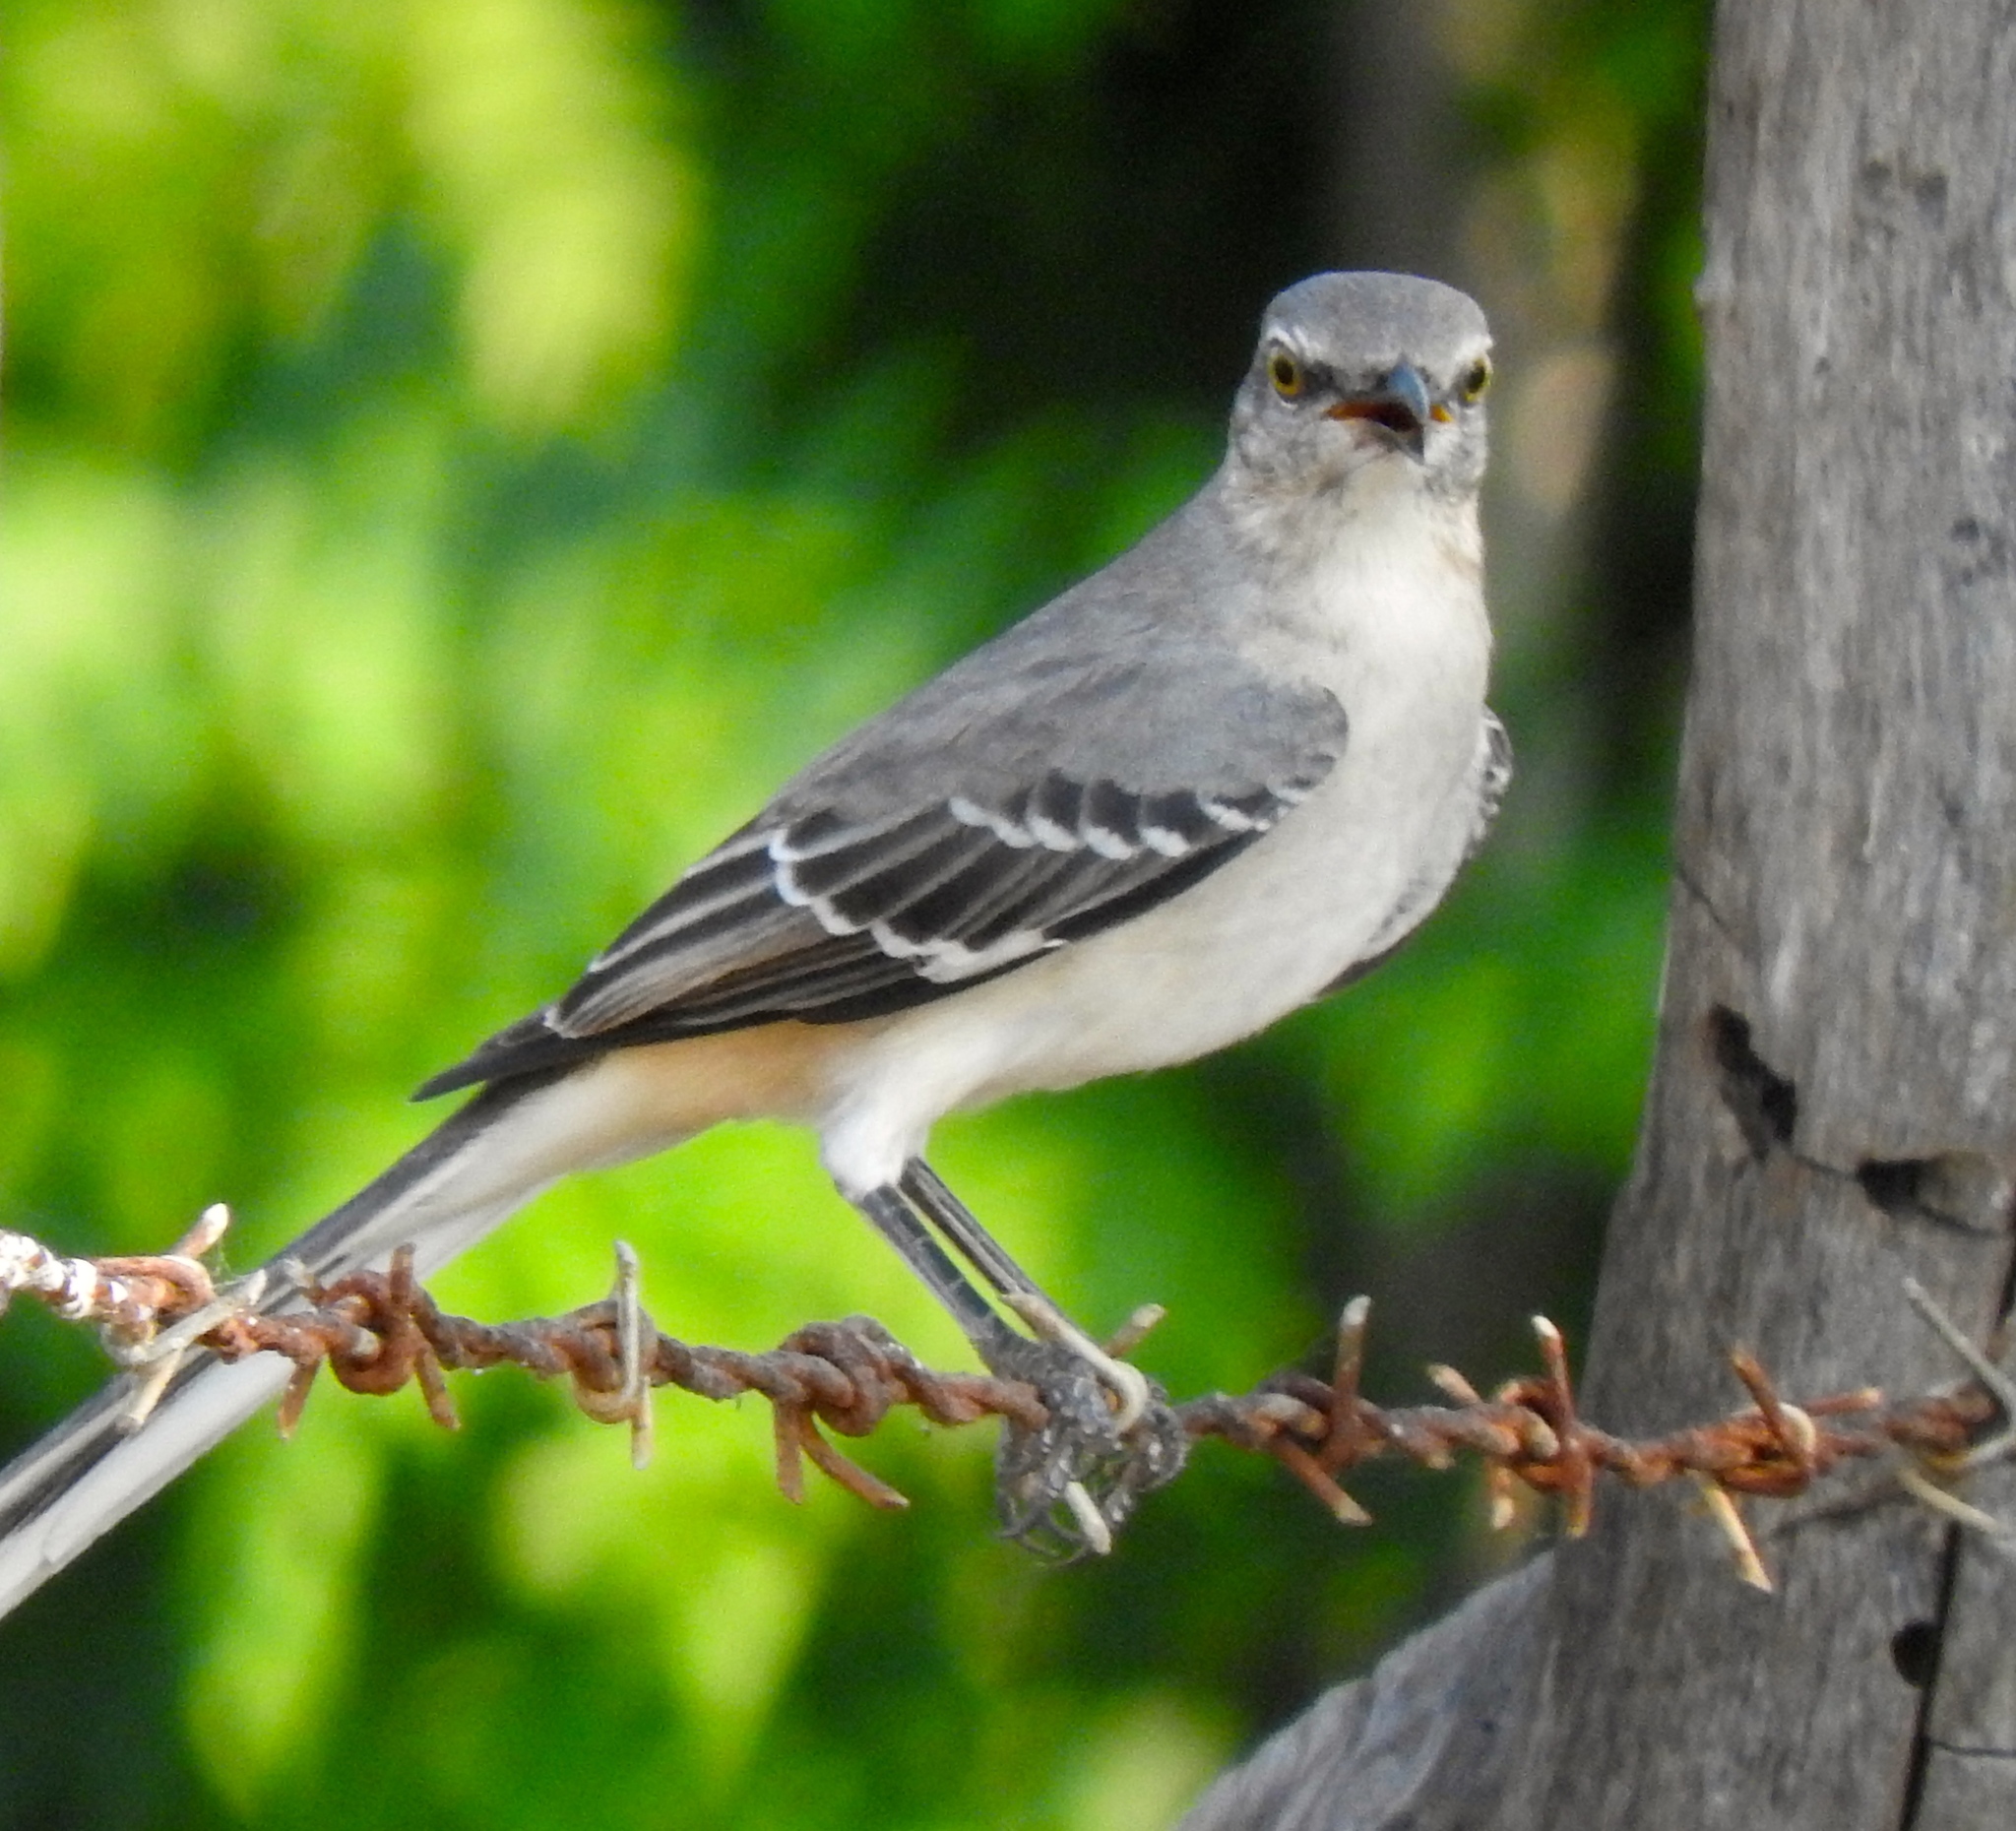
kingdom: Animalia
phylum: Chordata
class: Aves
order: Passeriformes
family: Mimidae
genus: Mimus
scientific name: Mimus polyglottos
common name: Northern mockingbird
